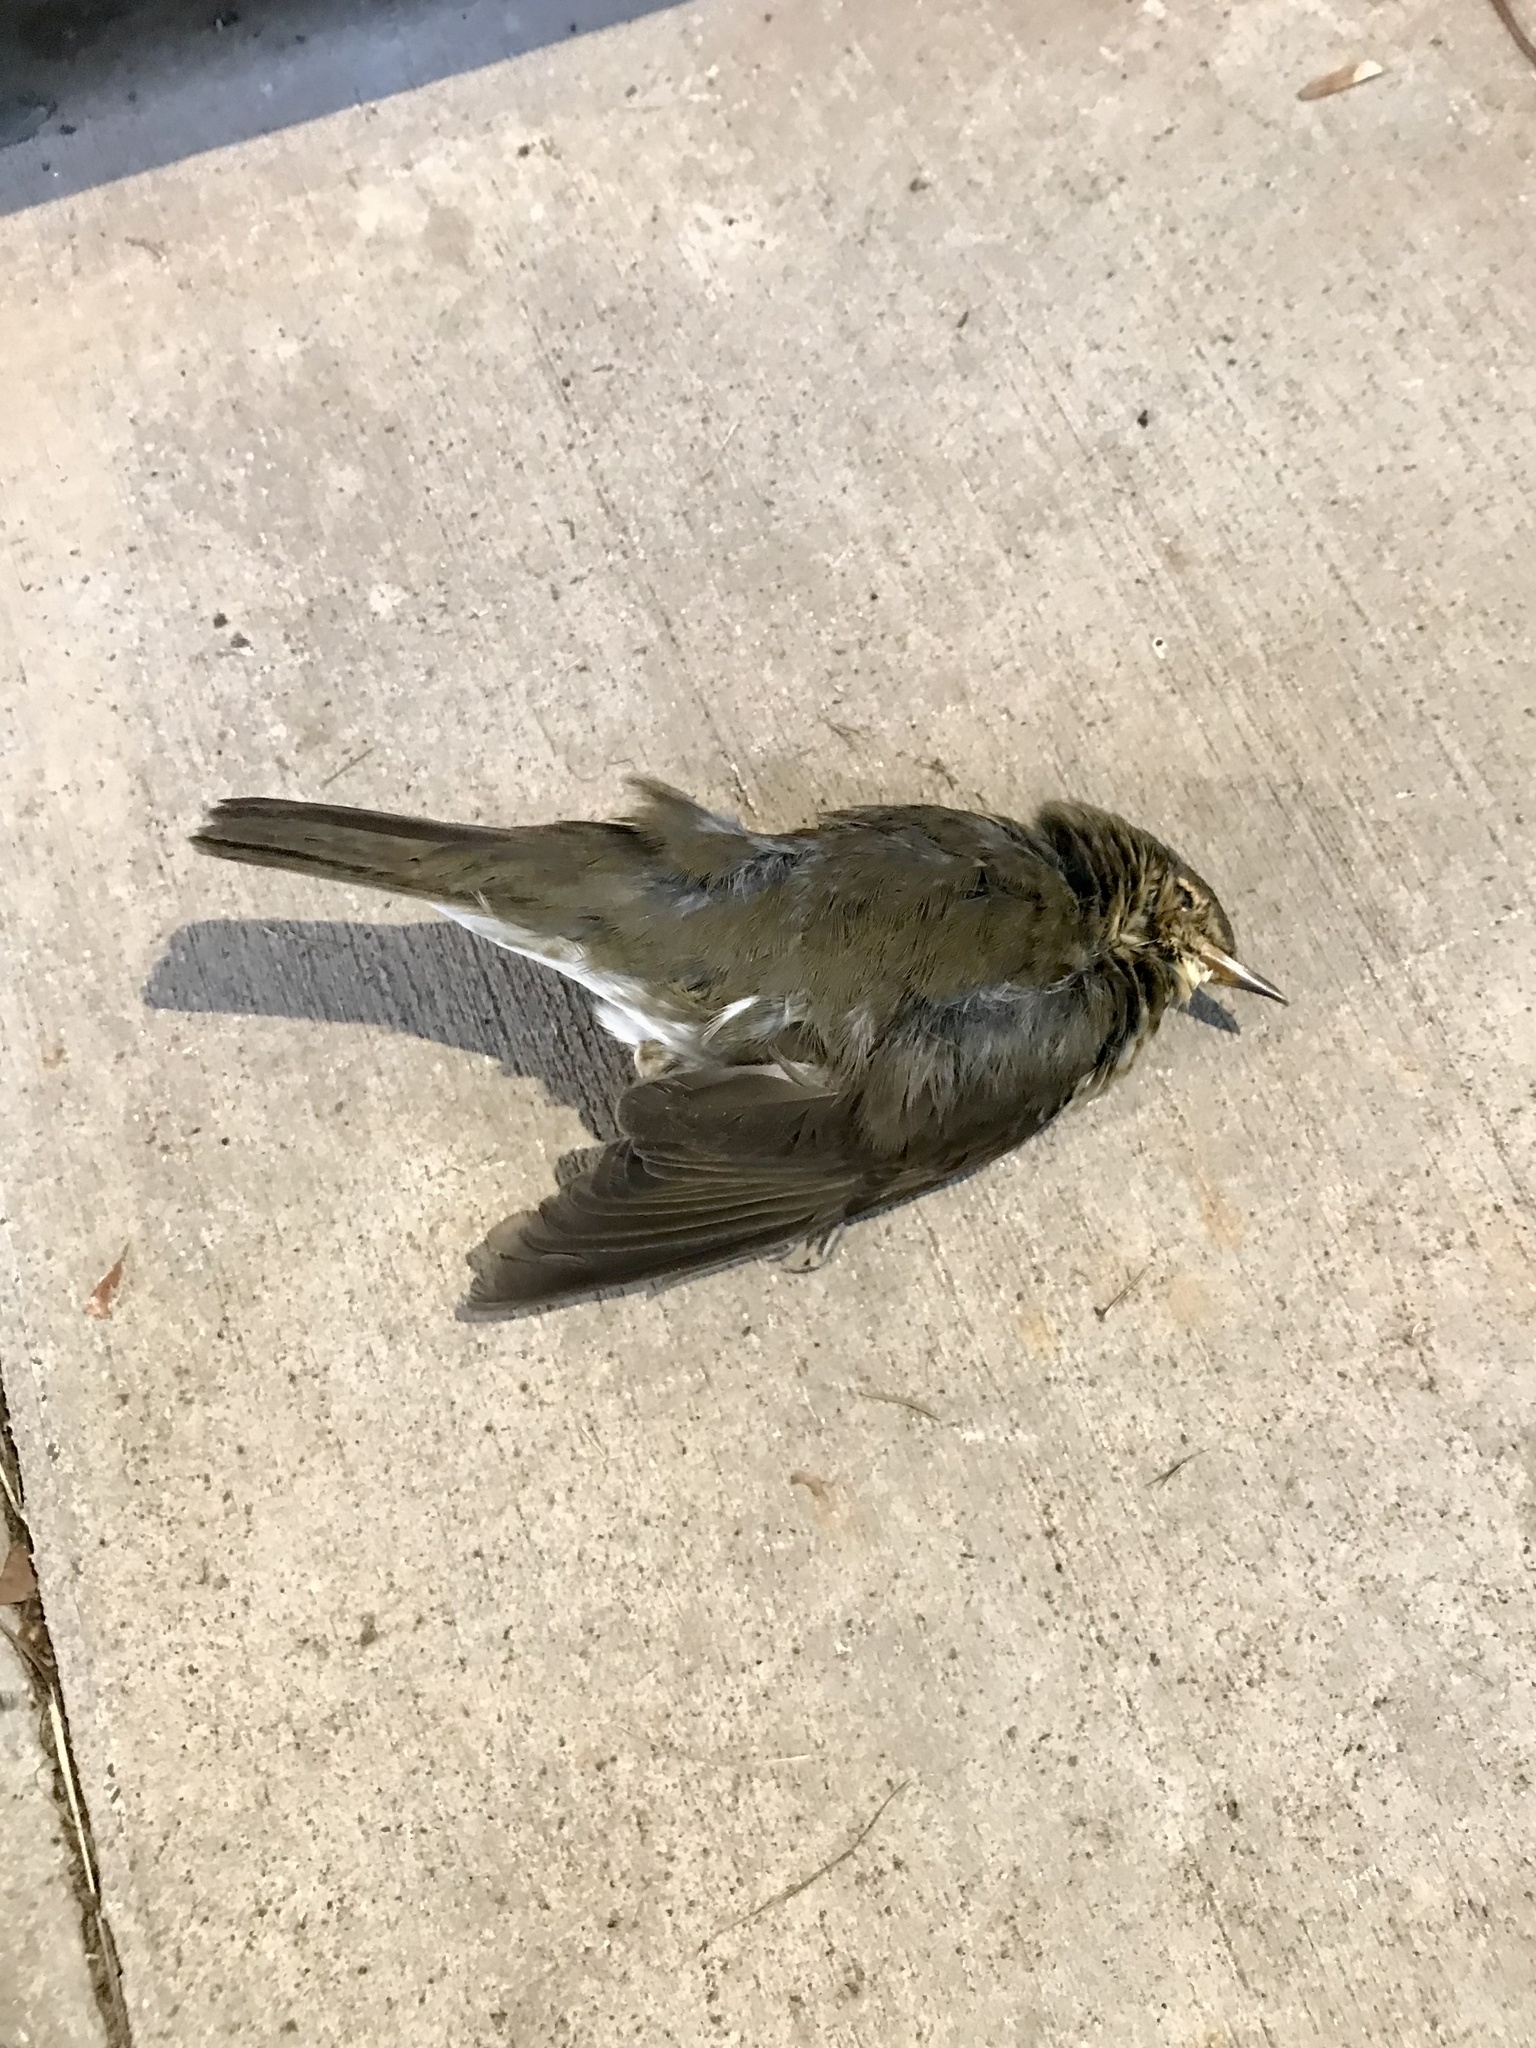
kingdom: Animalia
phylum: Chordata
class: Aves
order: Passeriformes
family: Turdidae
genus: Catharus
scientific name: Catharus ustulatus
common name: Swainson's thrush
